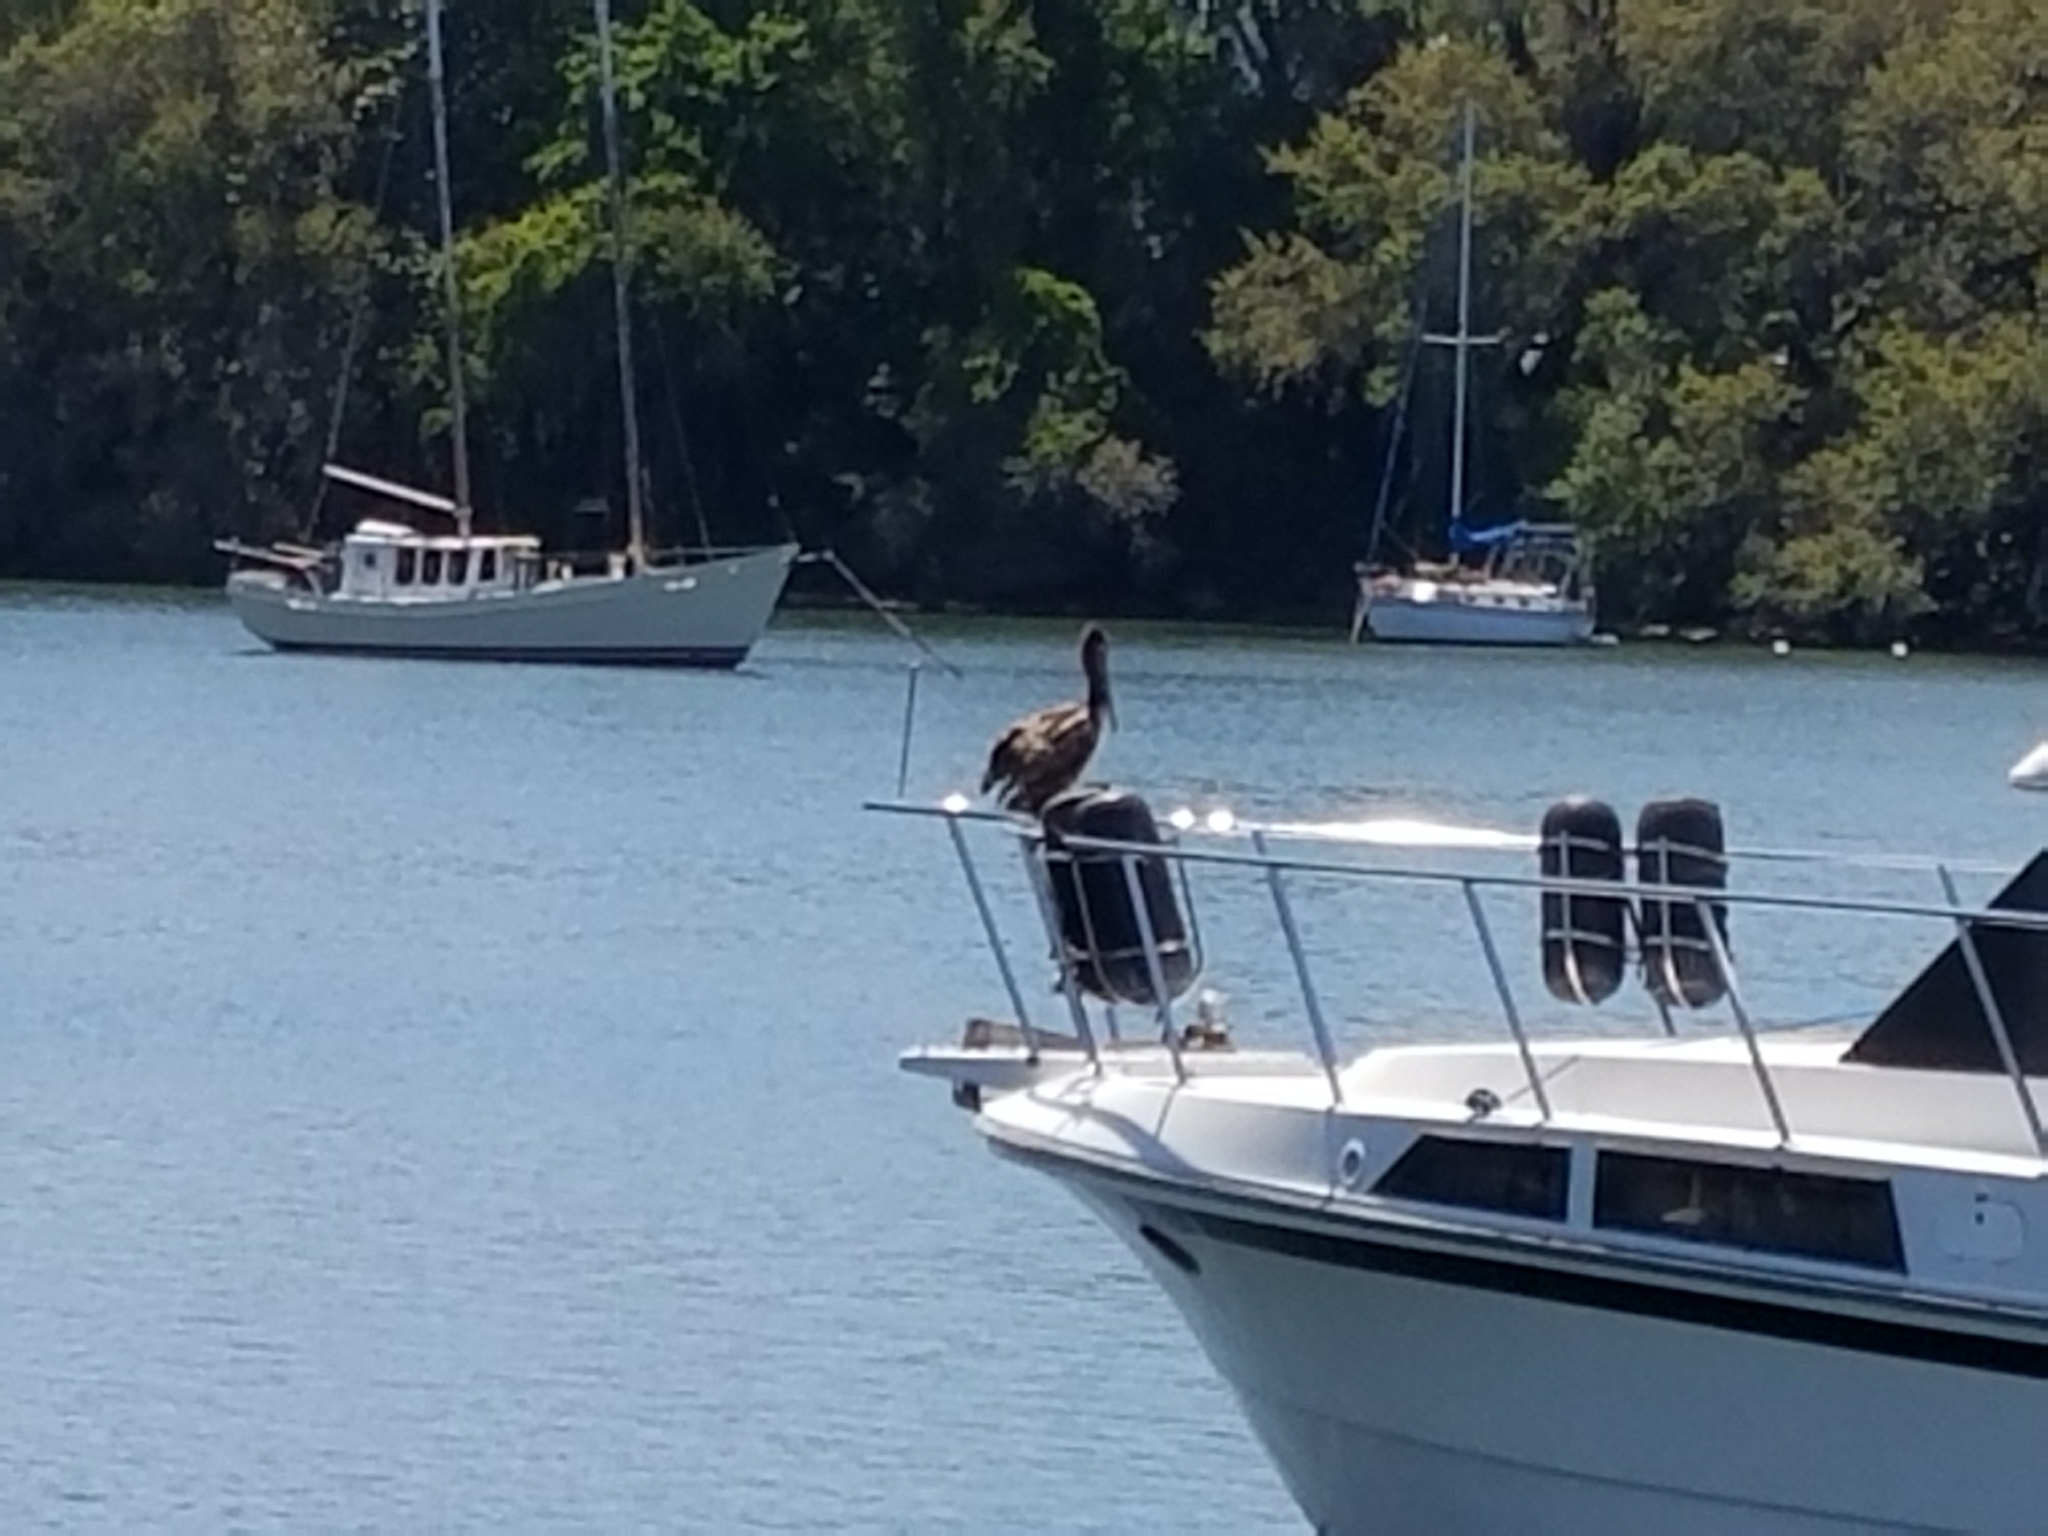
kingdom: Animalia
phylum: Chordata
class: Aves
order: Pelecaniformes
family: Pelecanidae
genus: Pelecanus
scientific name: Pelecanus occidentalis
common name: Brown pelican
